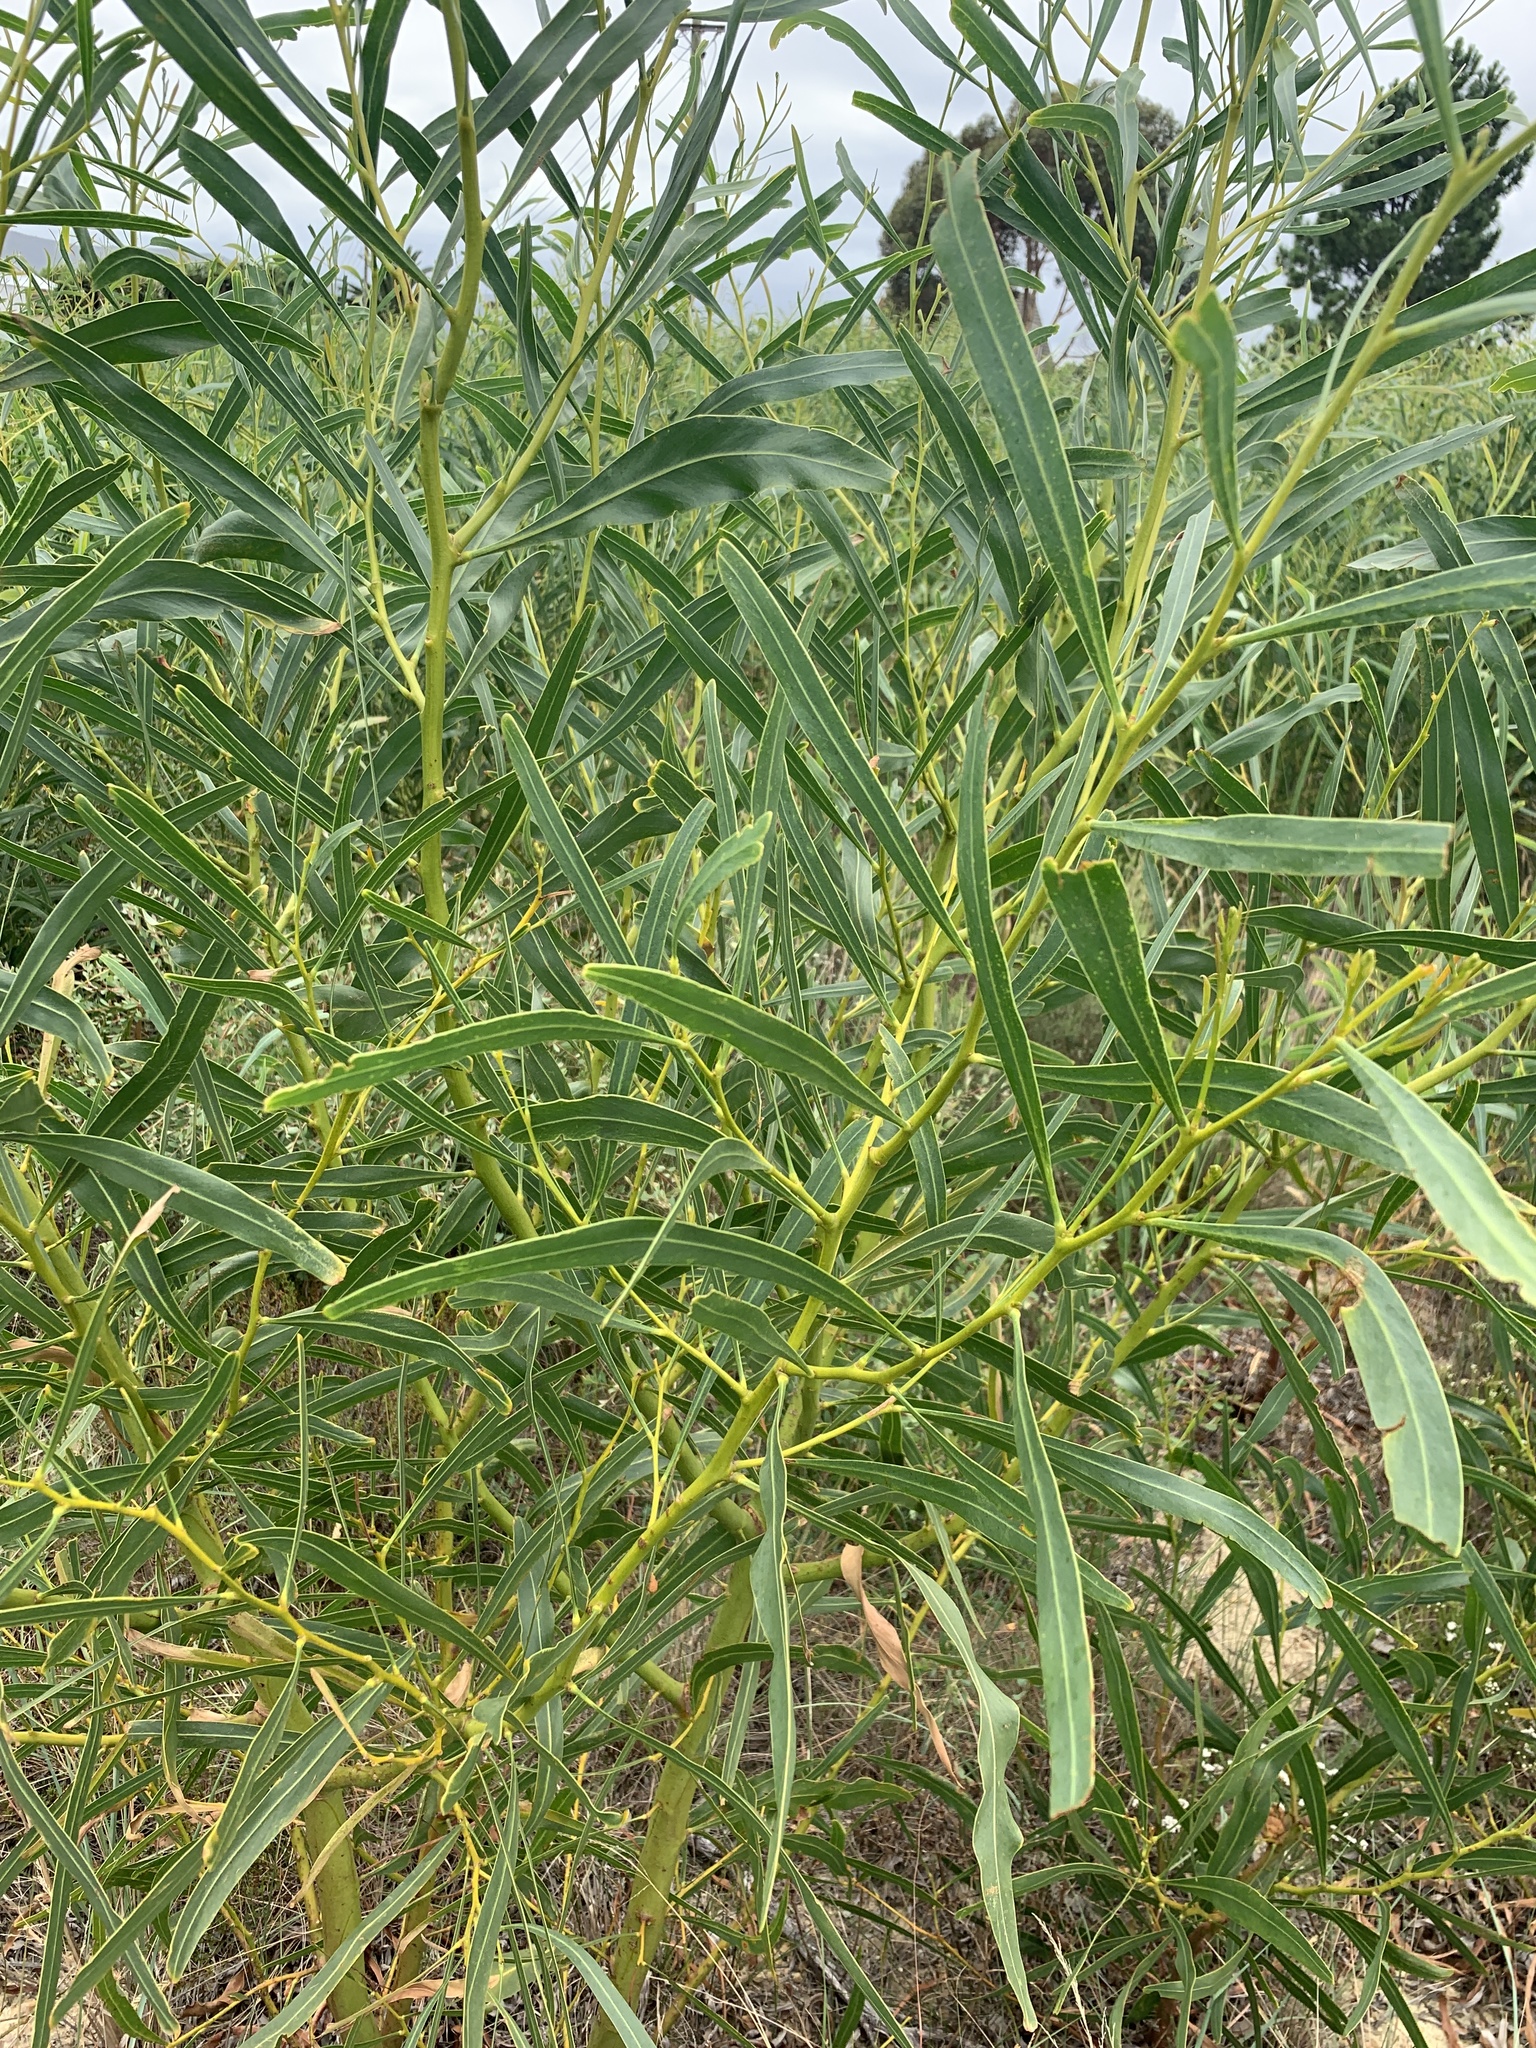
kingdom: Plantae
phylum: Tracheophyta
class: Magnoliopsida
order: Fabales
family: Fabaceae
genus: Acacia
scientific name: Acacia saligna
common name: Orange wattle
